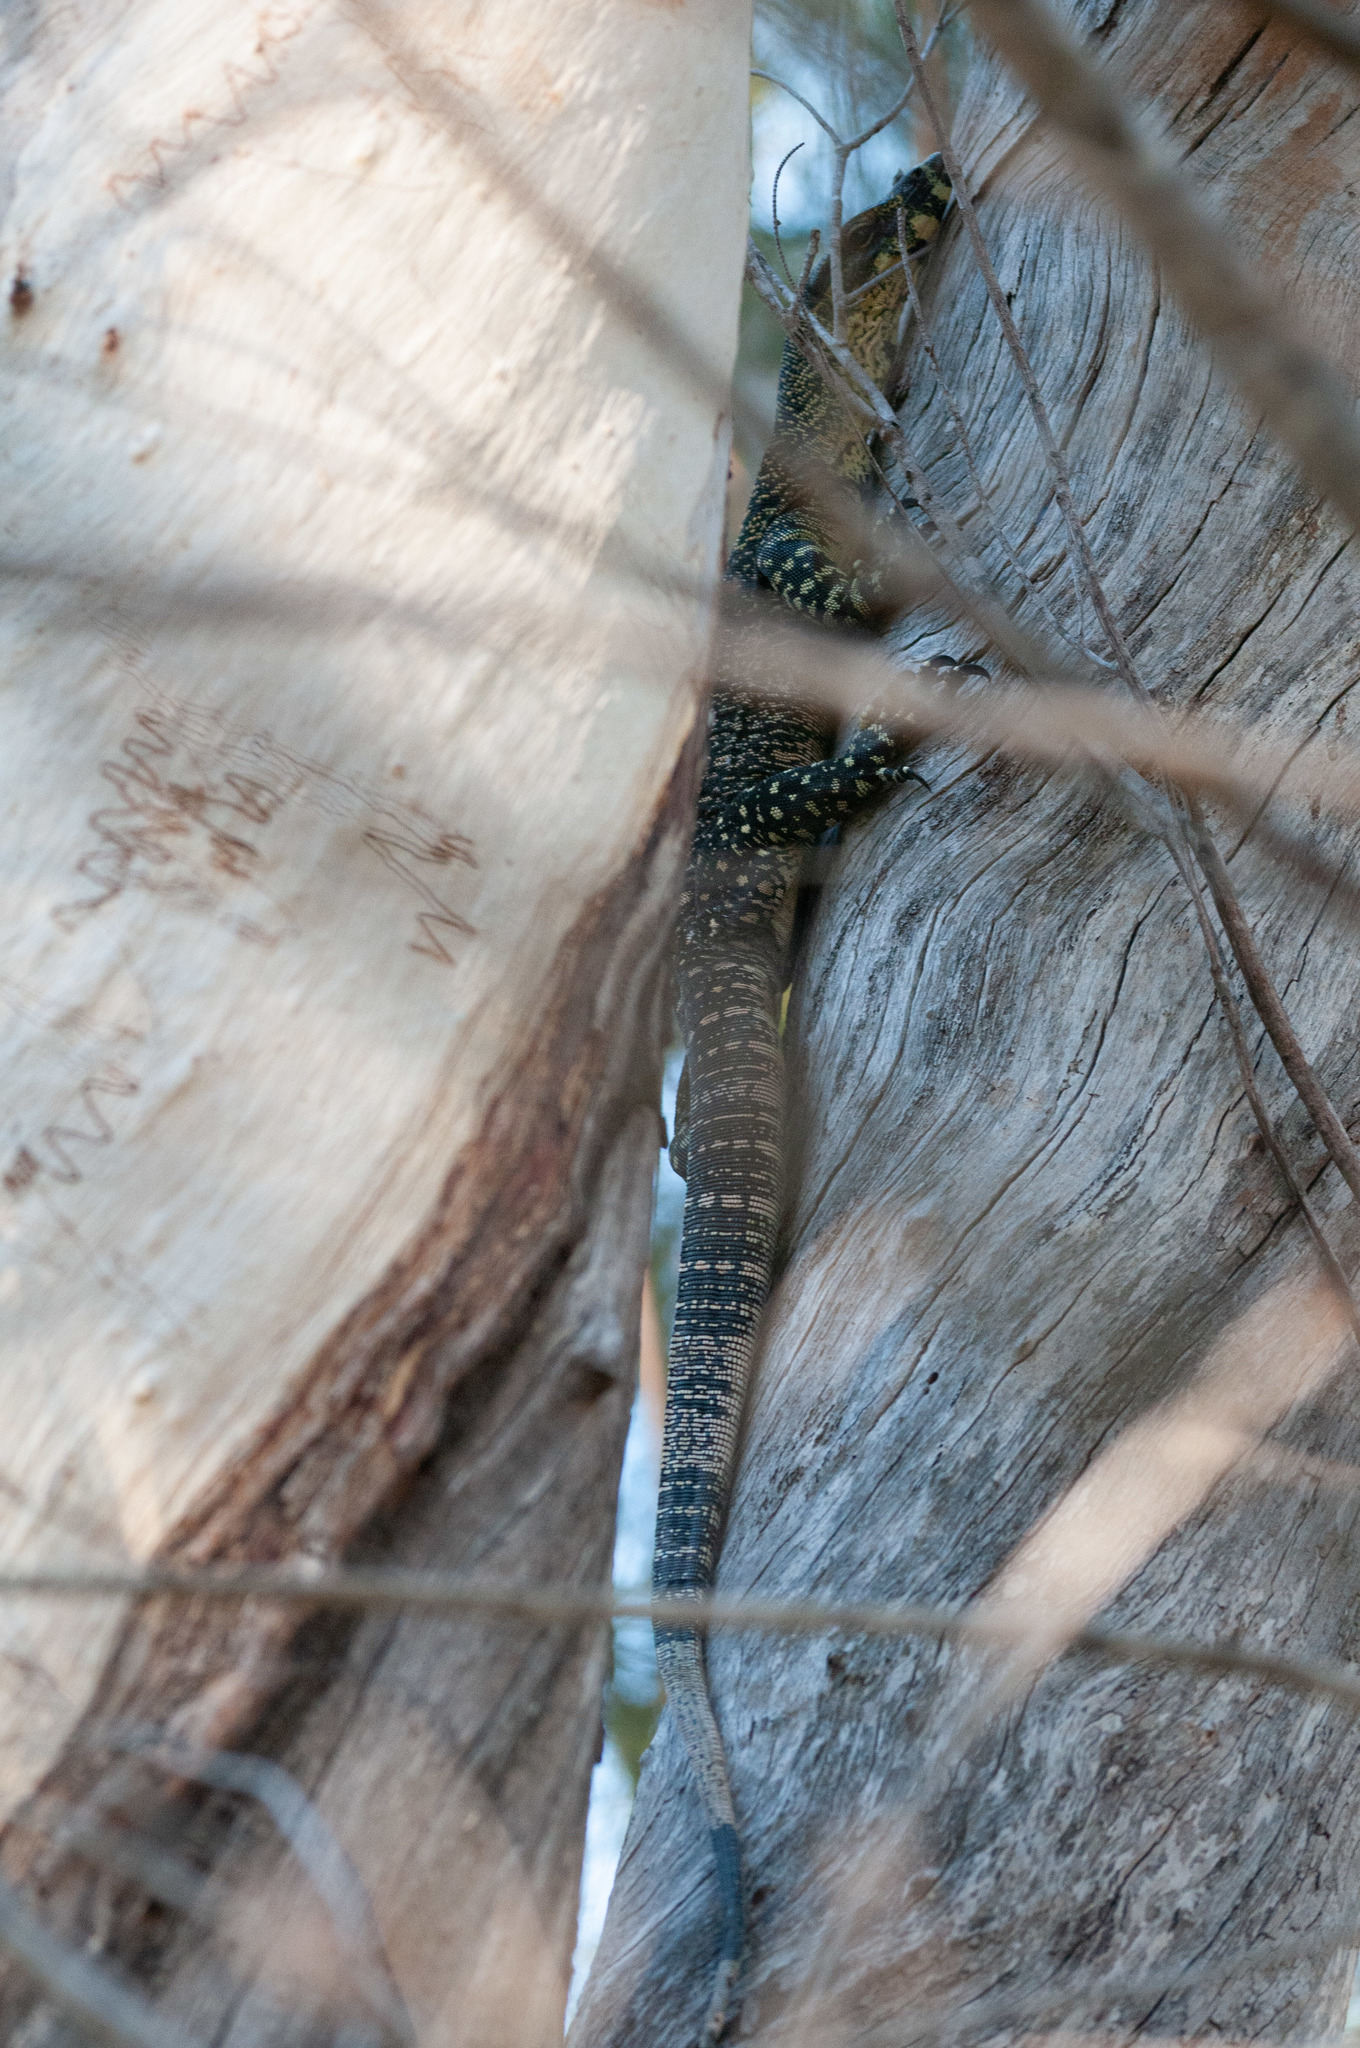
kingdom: Animalia
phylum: Chordata
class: Squamata
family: Varanidae
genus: Varanus
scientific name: Varanus varius
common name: Lace monitor
